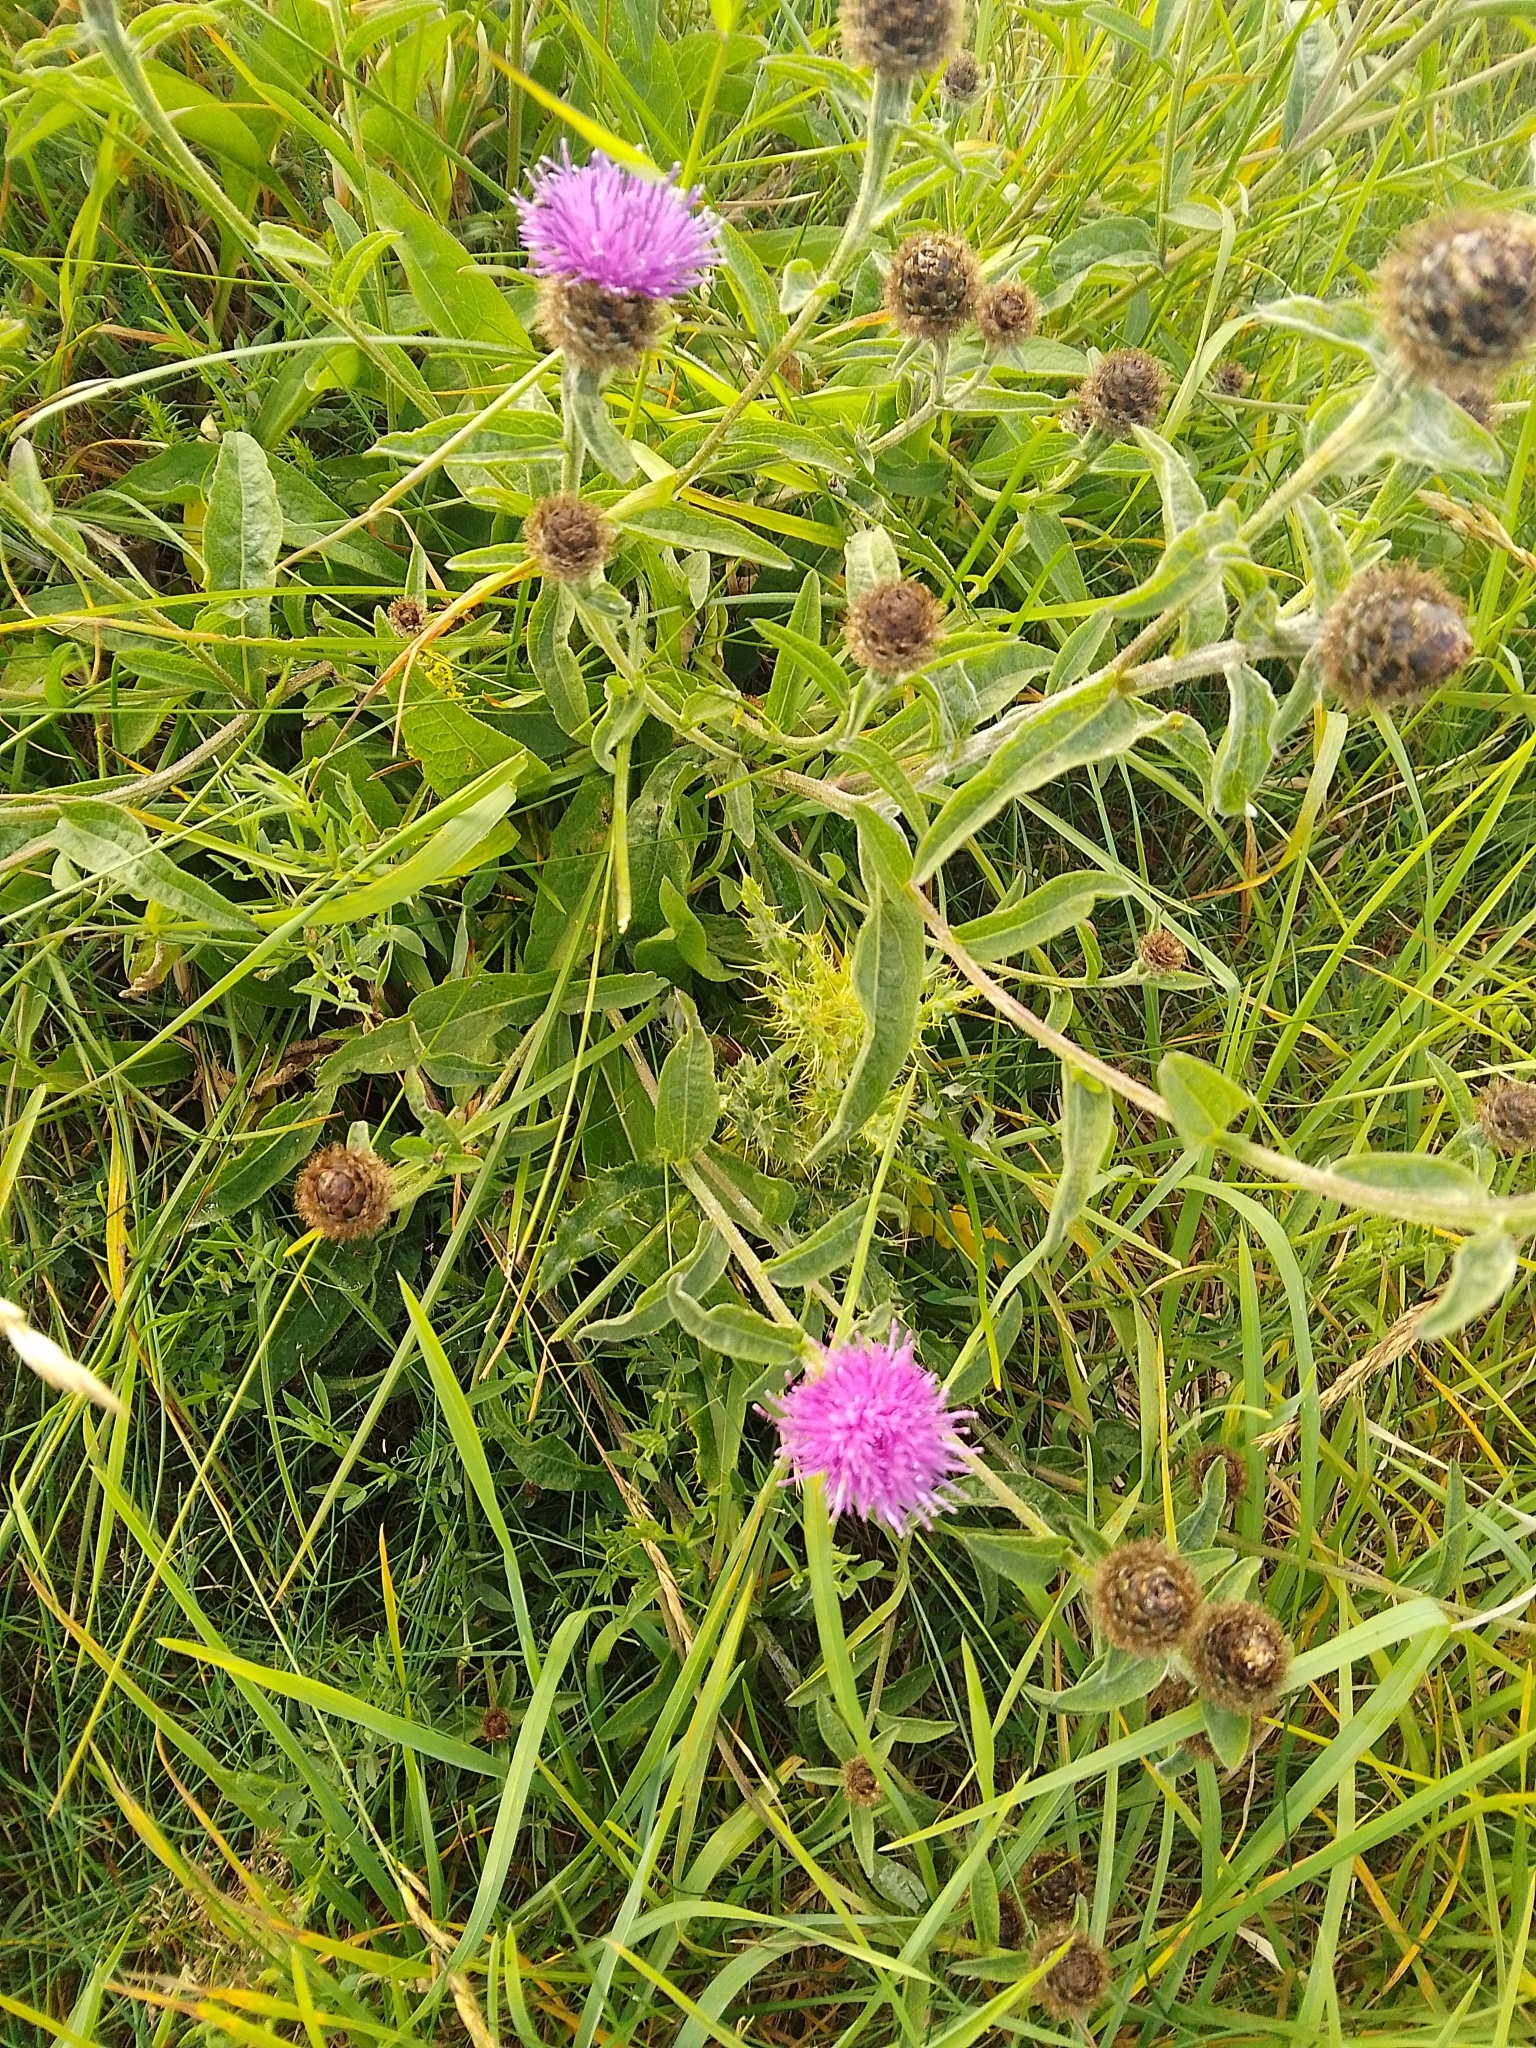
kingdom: Plantae
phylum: Tracheophyta
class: Magnoliopsida
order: Asterales
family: Asteraceae
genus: Centaurea
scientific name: Centaurea nigra
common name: Lesser knapweed
